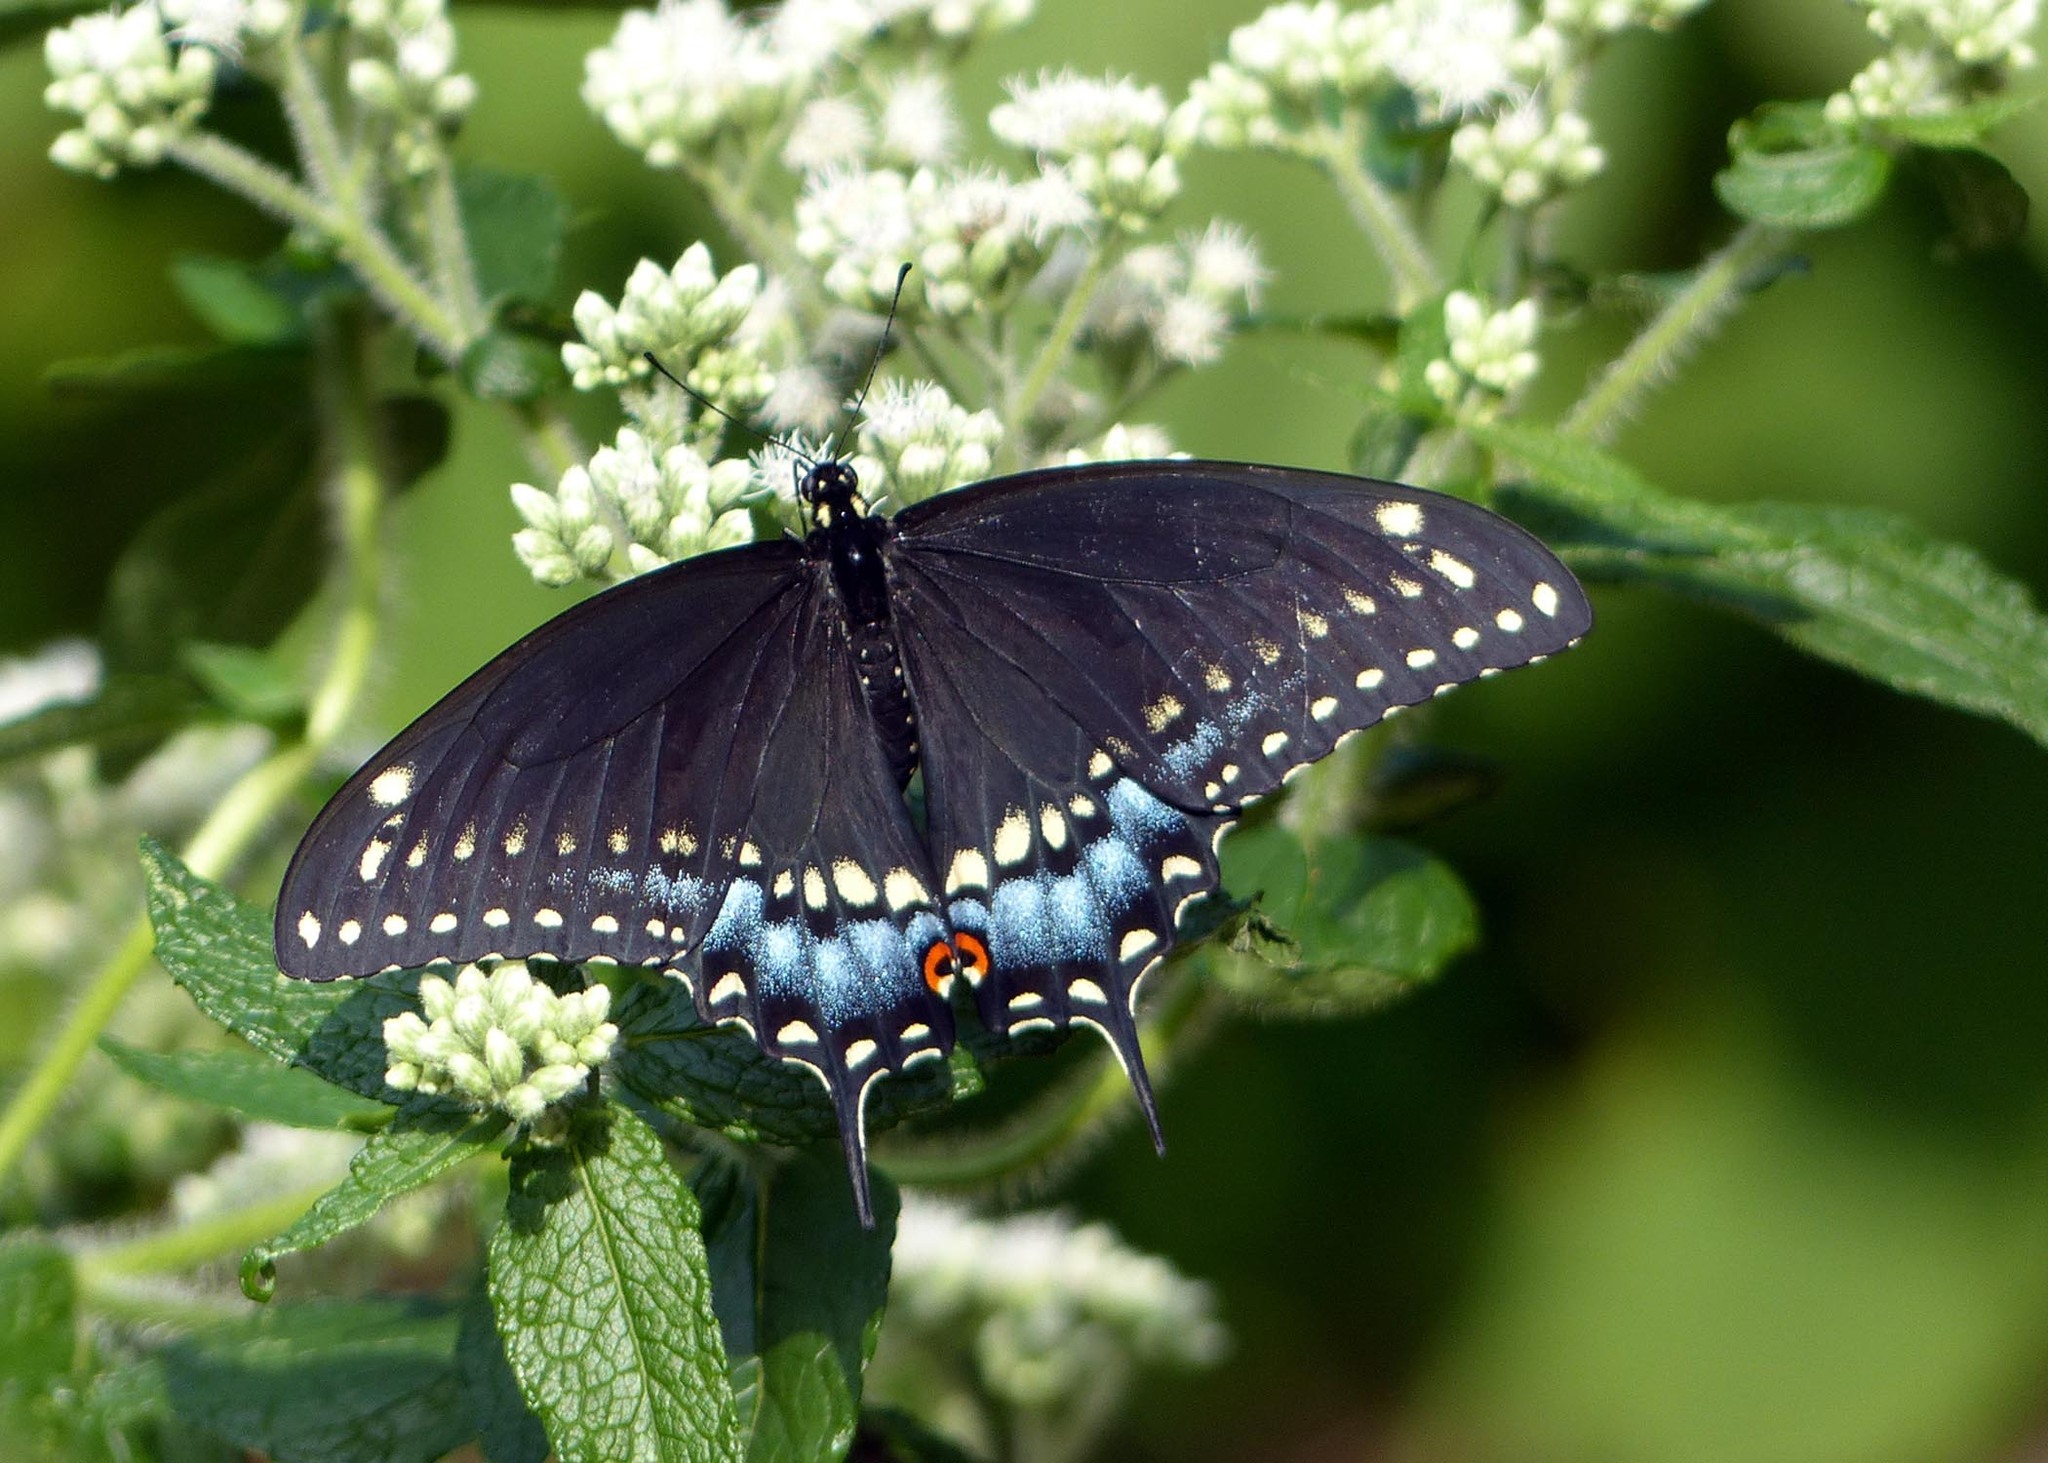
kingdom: Animalia
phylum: Arthropoda
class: Insecta
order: Lepidoptera
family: Papilionidae
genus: Papilio
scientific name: Papilio polyxenes
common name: Black swallowtail
